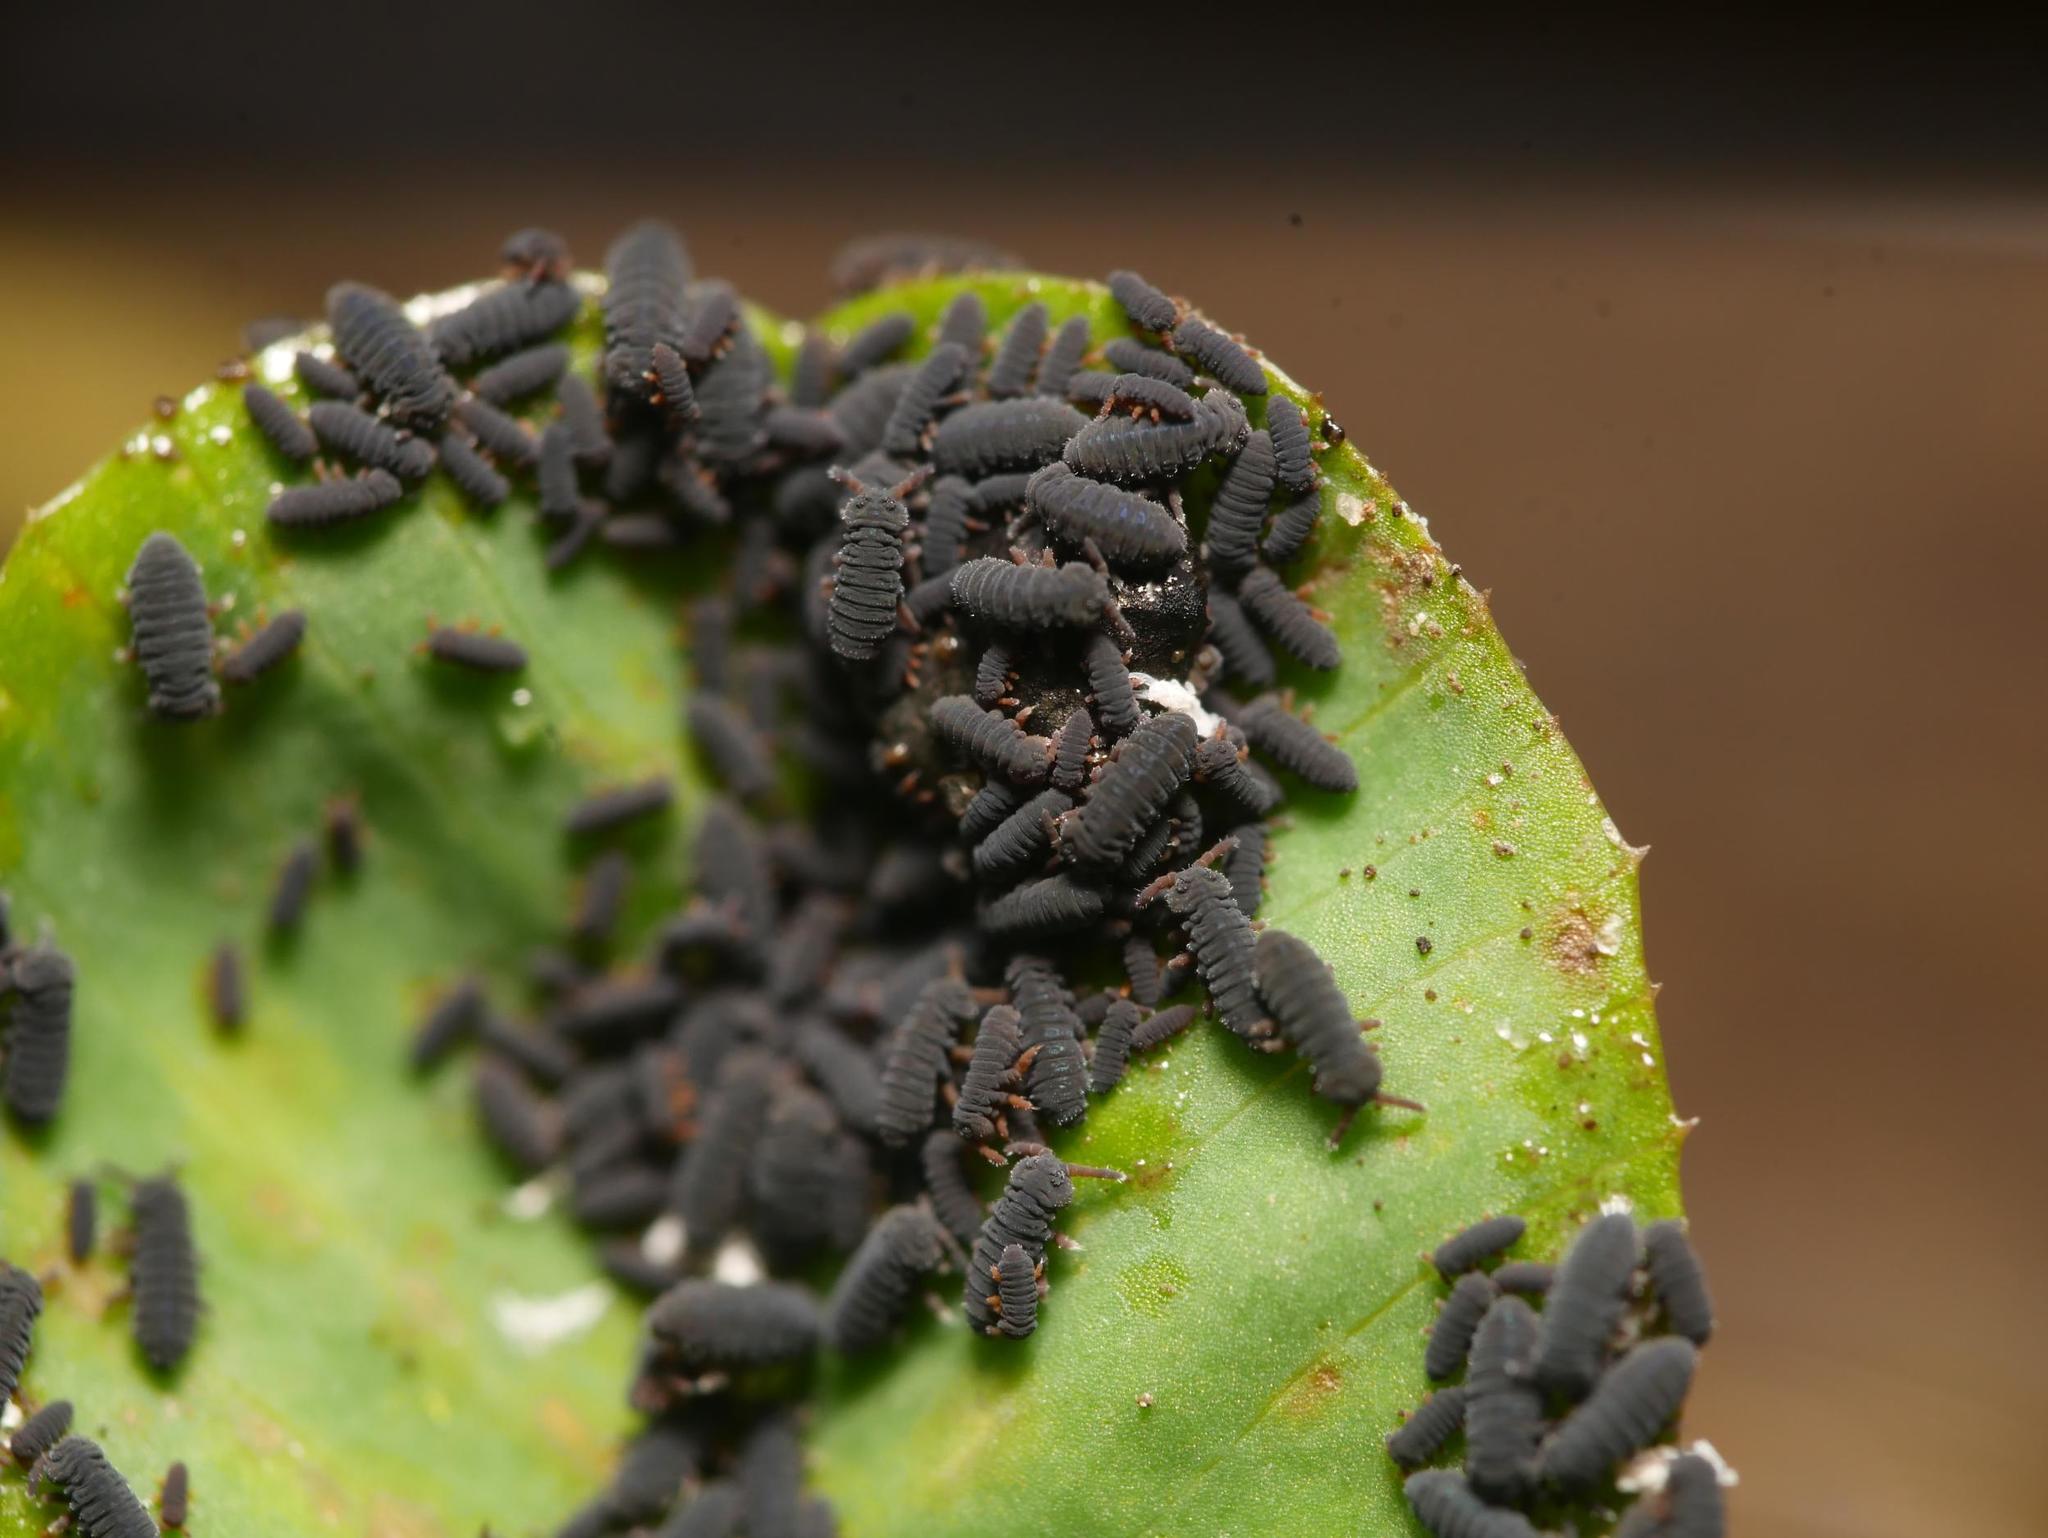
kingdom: Animalia
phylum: Arthropoda
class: Collembola
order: Poduromorpha
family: Poduridae
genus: Podura
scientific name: Podura aquatica
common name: Water springtail
